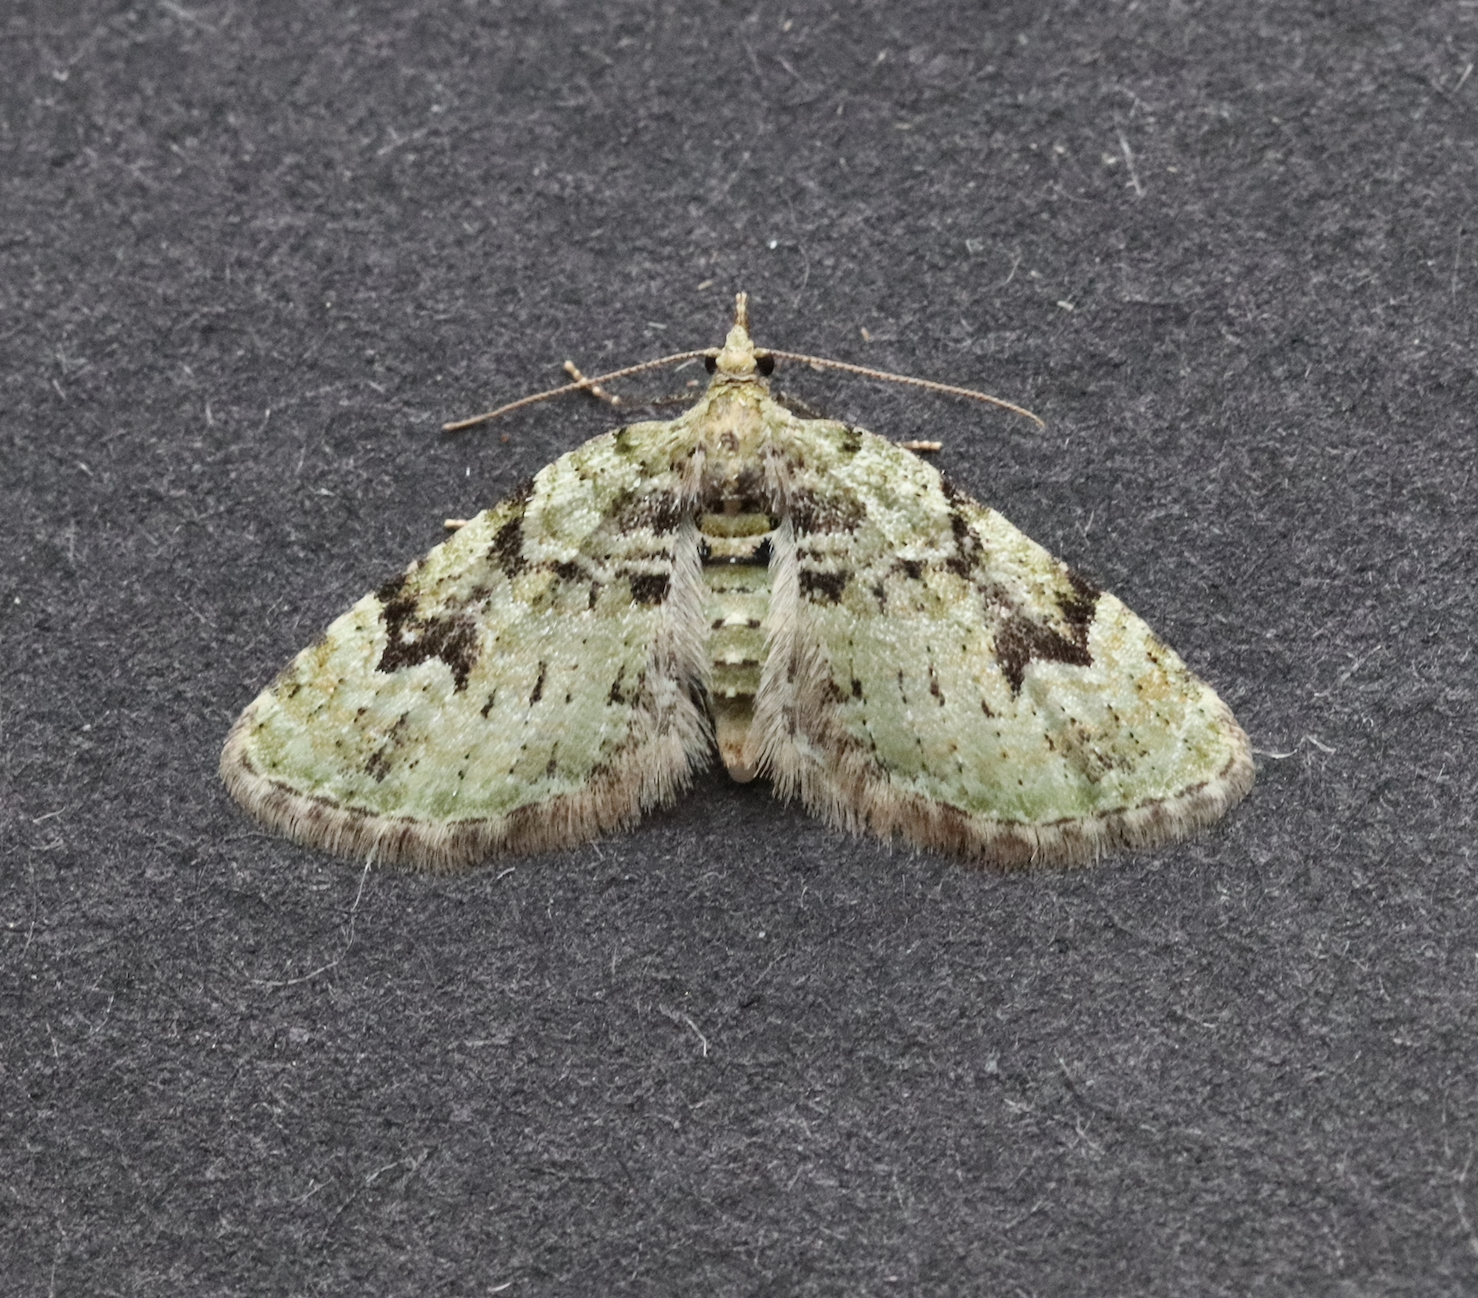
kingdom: Animalia
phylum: Arthropoda
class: Insecta
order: Lepidoptera
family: Geometridae
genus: Chloroclystis
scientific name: Chloroclystis v-ata
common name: V-pug
